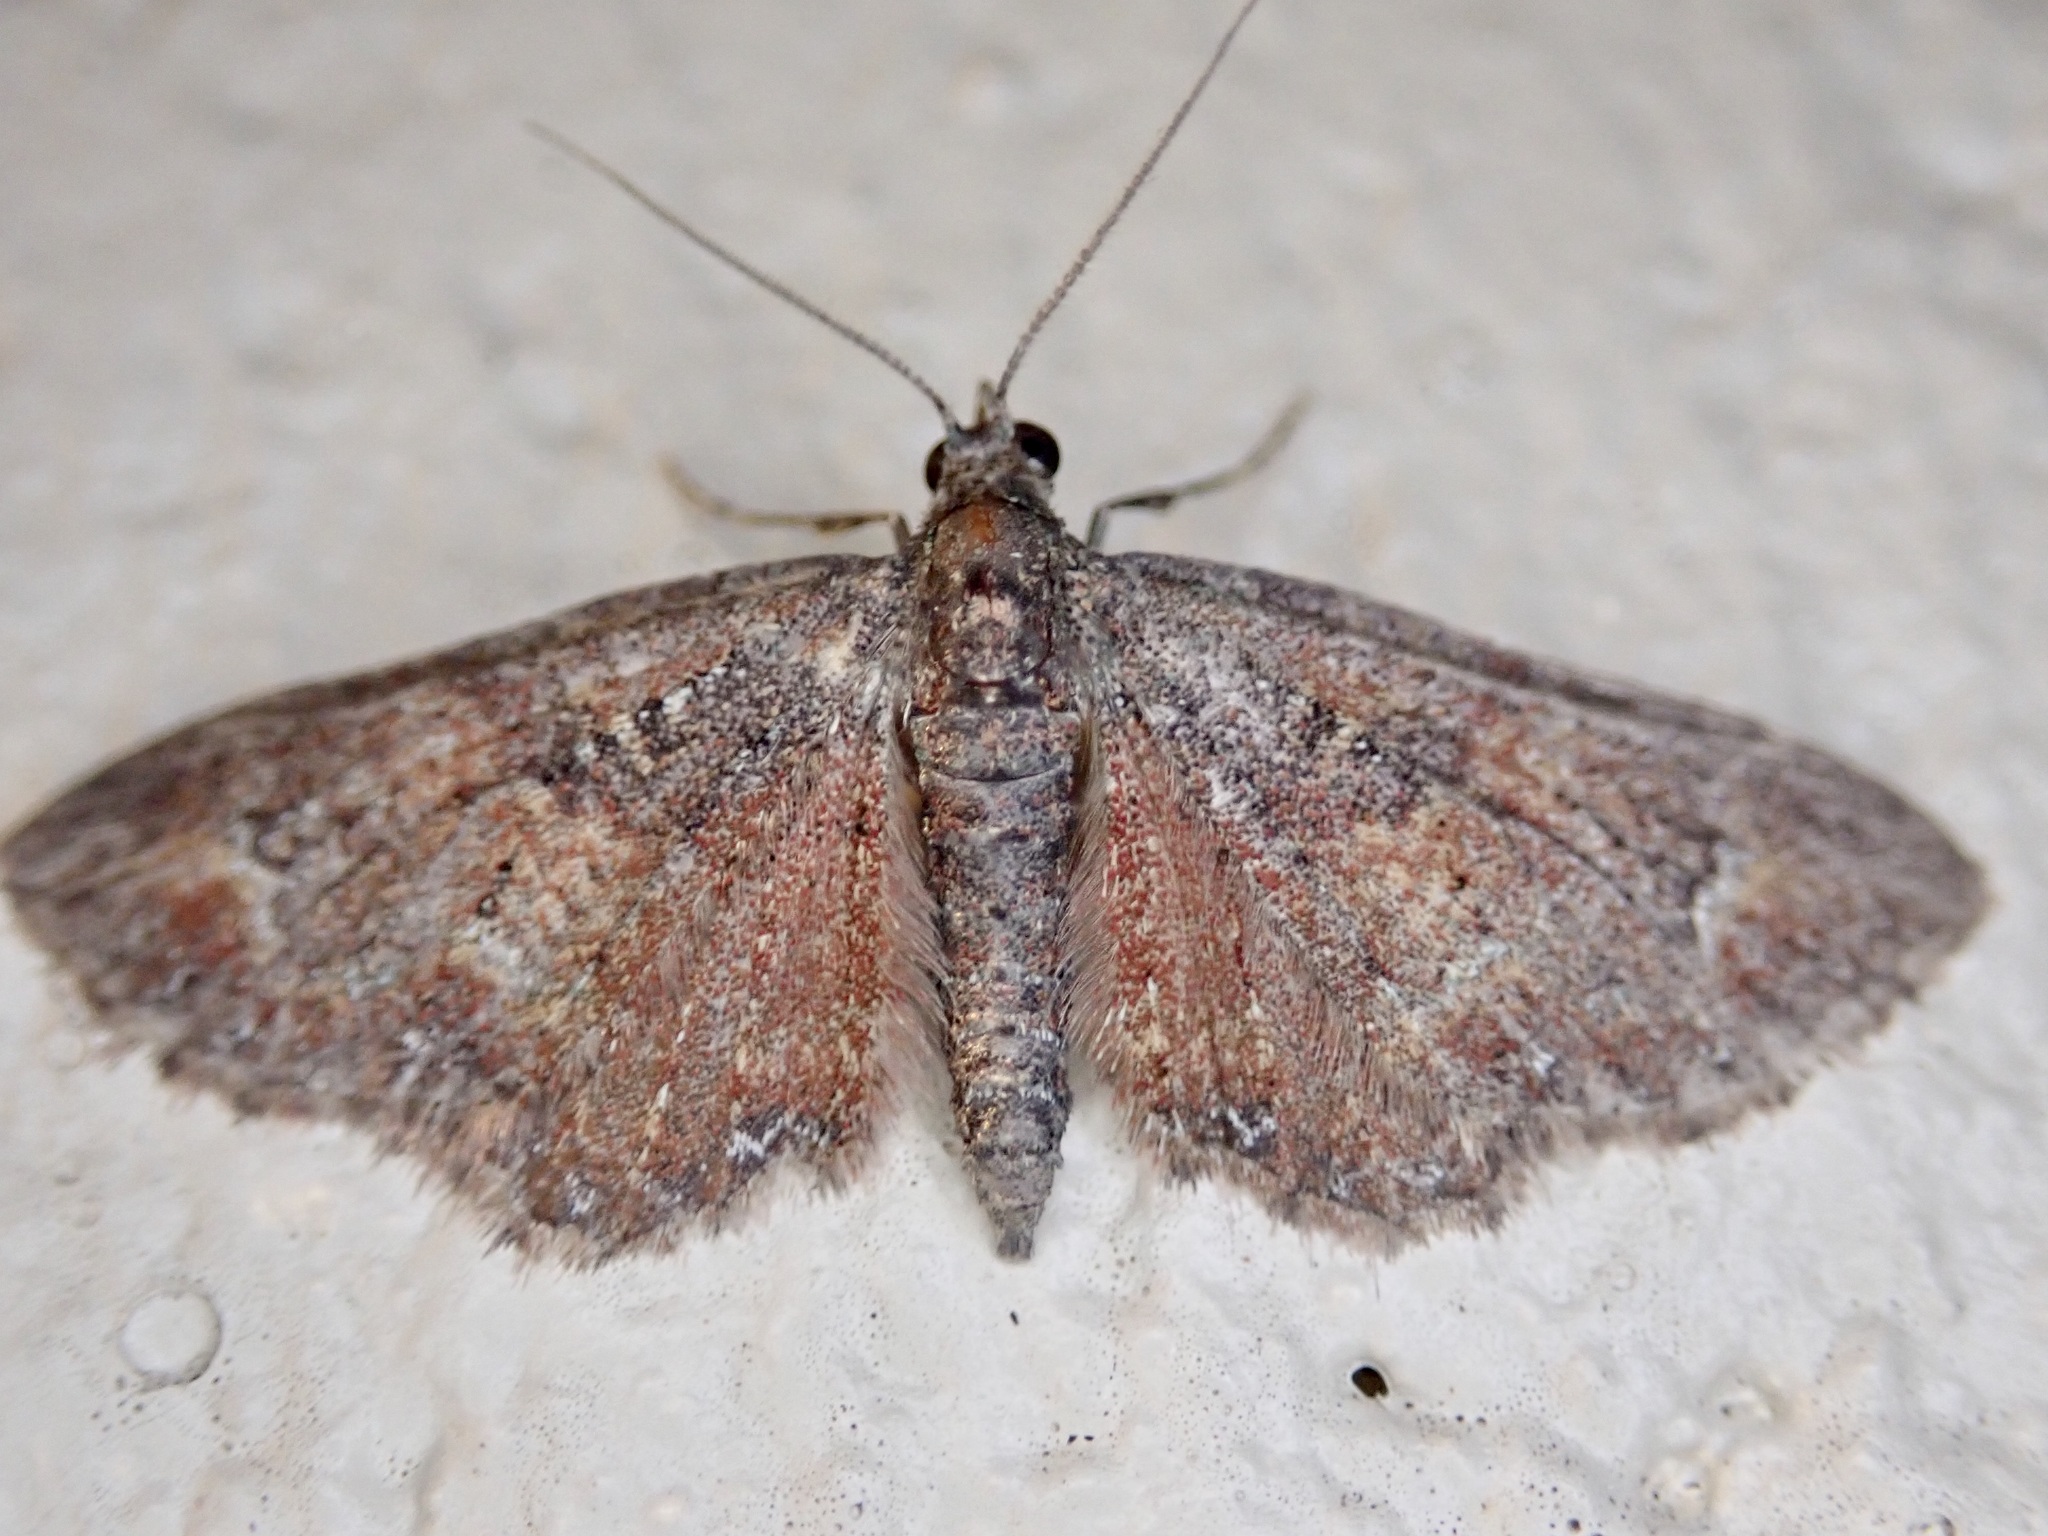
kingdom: Animalia
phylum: Arthropoda
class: Insecta
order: Lepidoptera
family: Geometridae
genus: Pasiphilodes
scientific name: Pasiphilodes testulata
